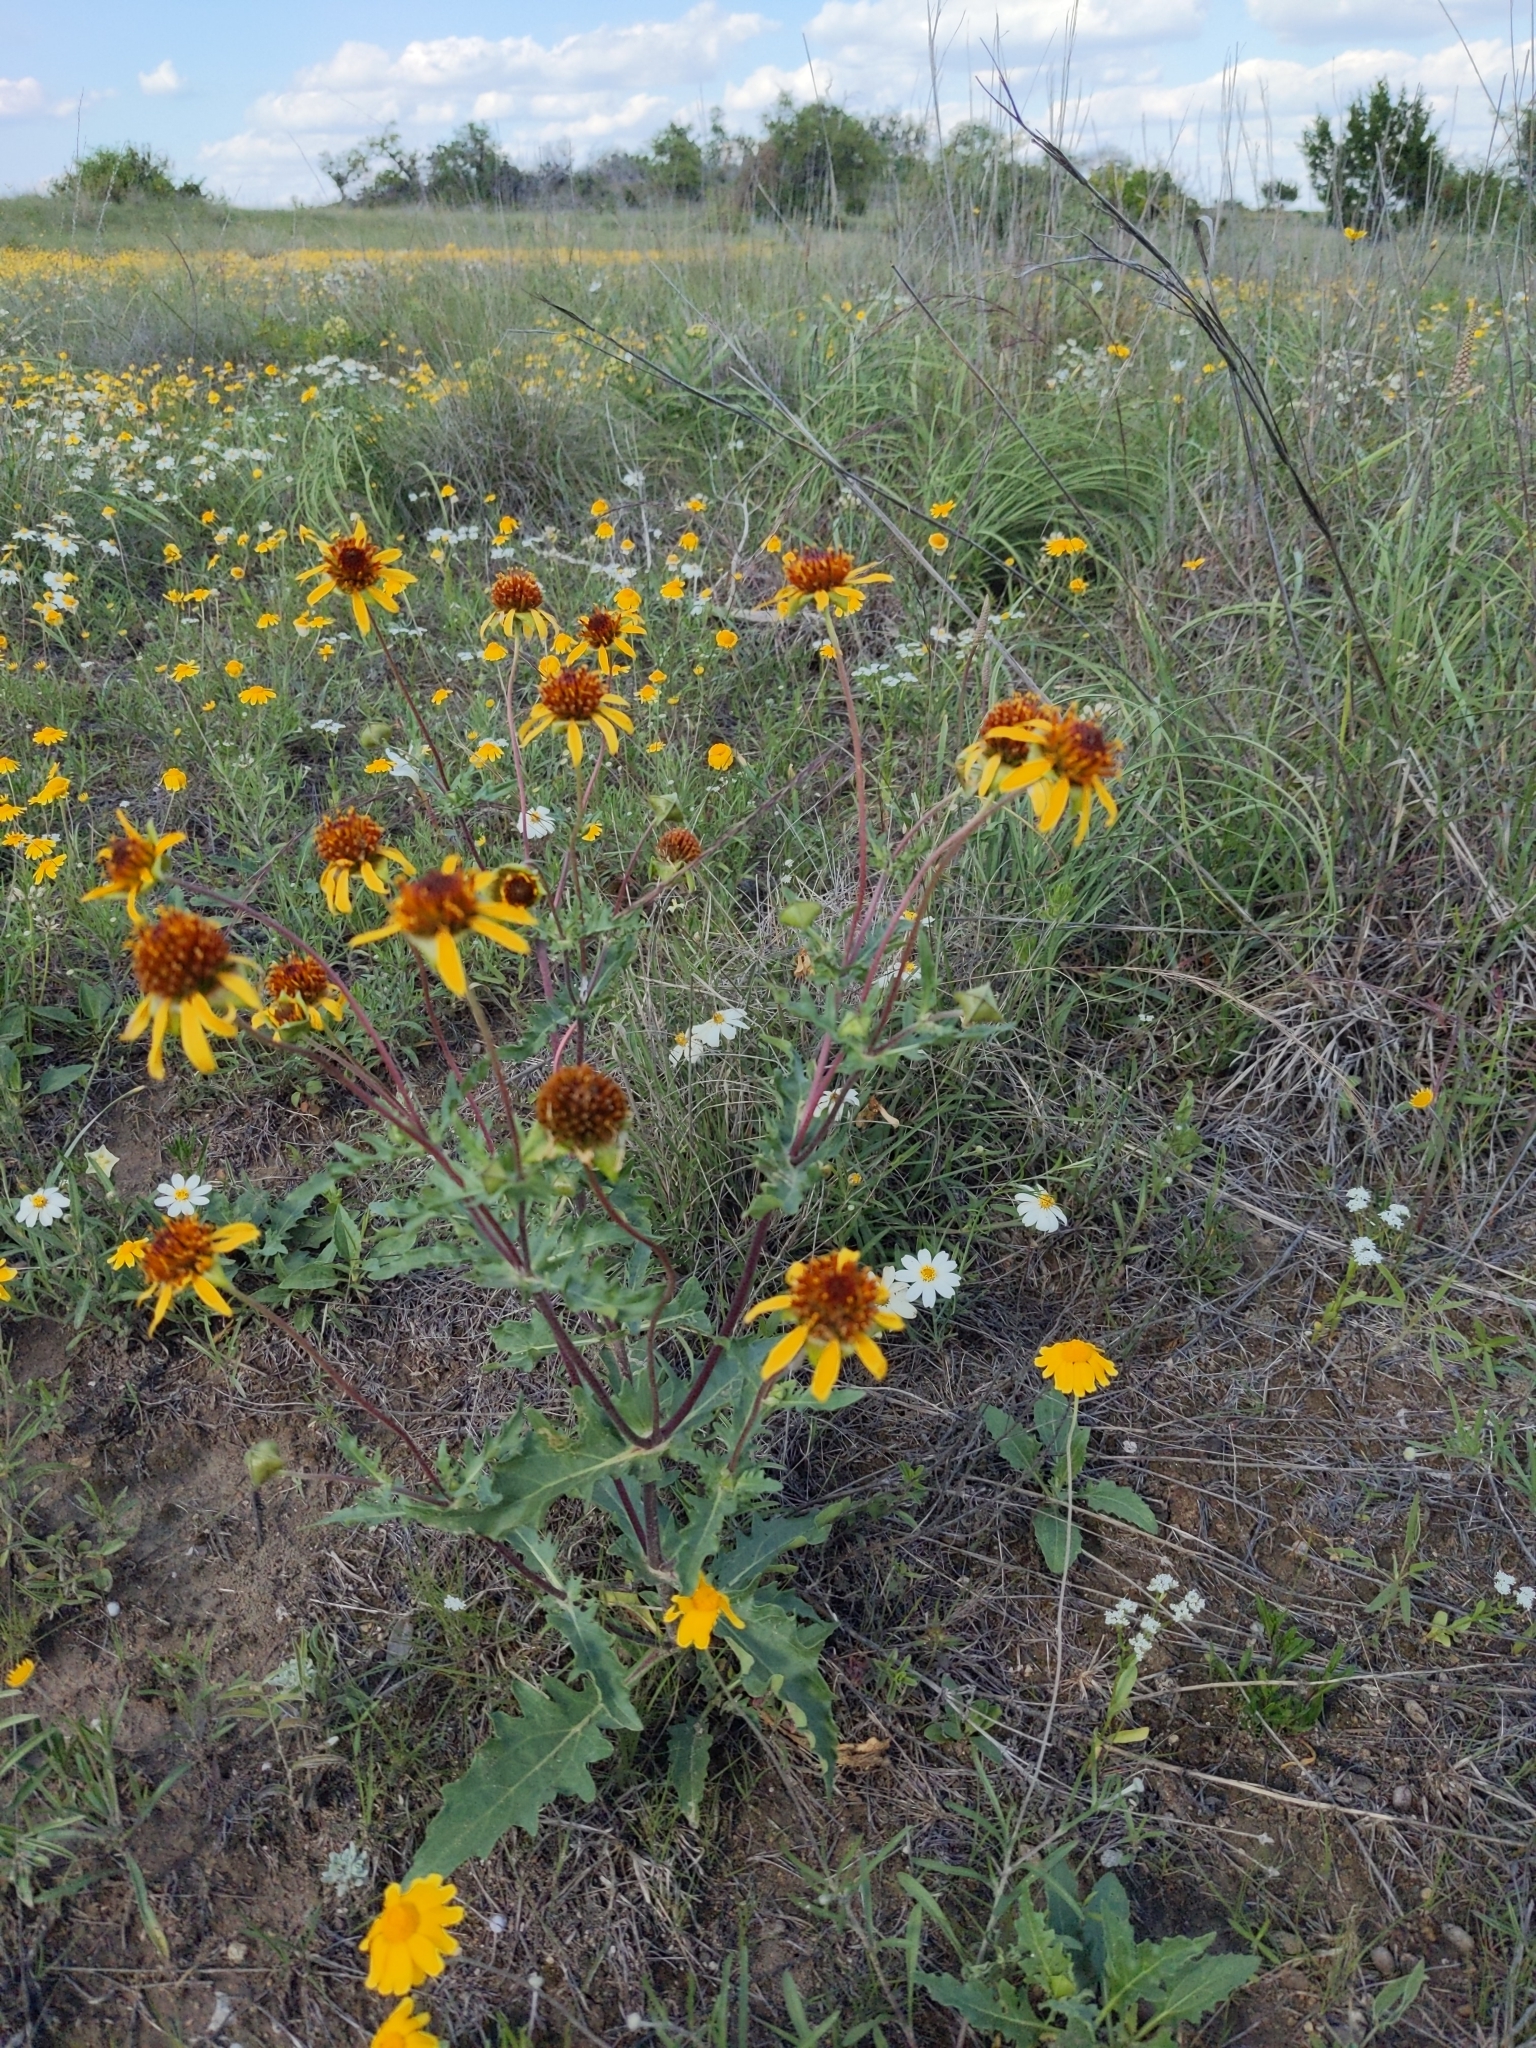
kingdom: Plantae
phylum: Tracheophyta
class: Magnoliopsida
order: Asterales
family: Asteraceae
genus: Tetragonotheca
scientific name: Tetragonotheca texana
